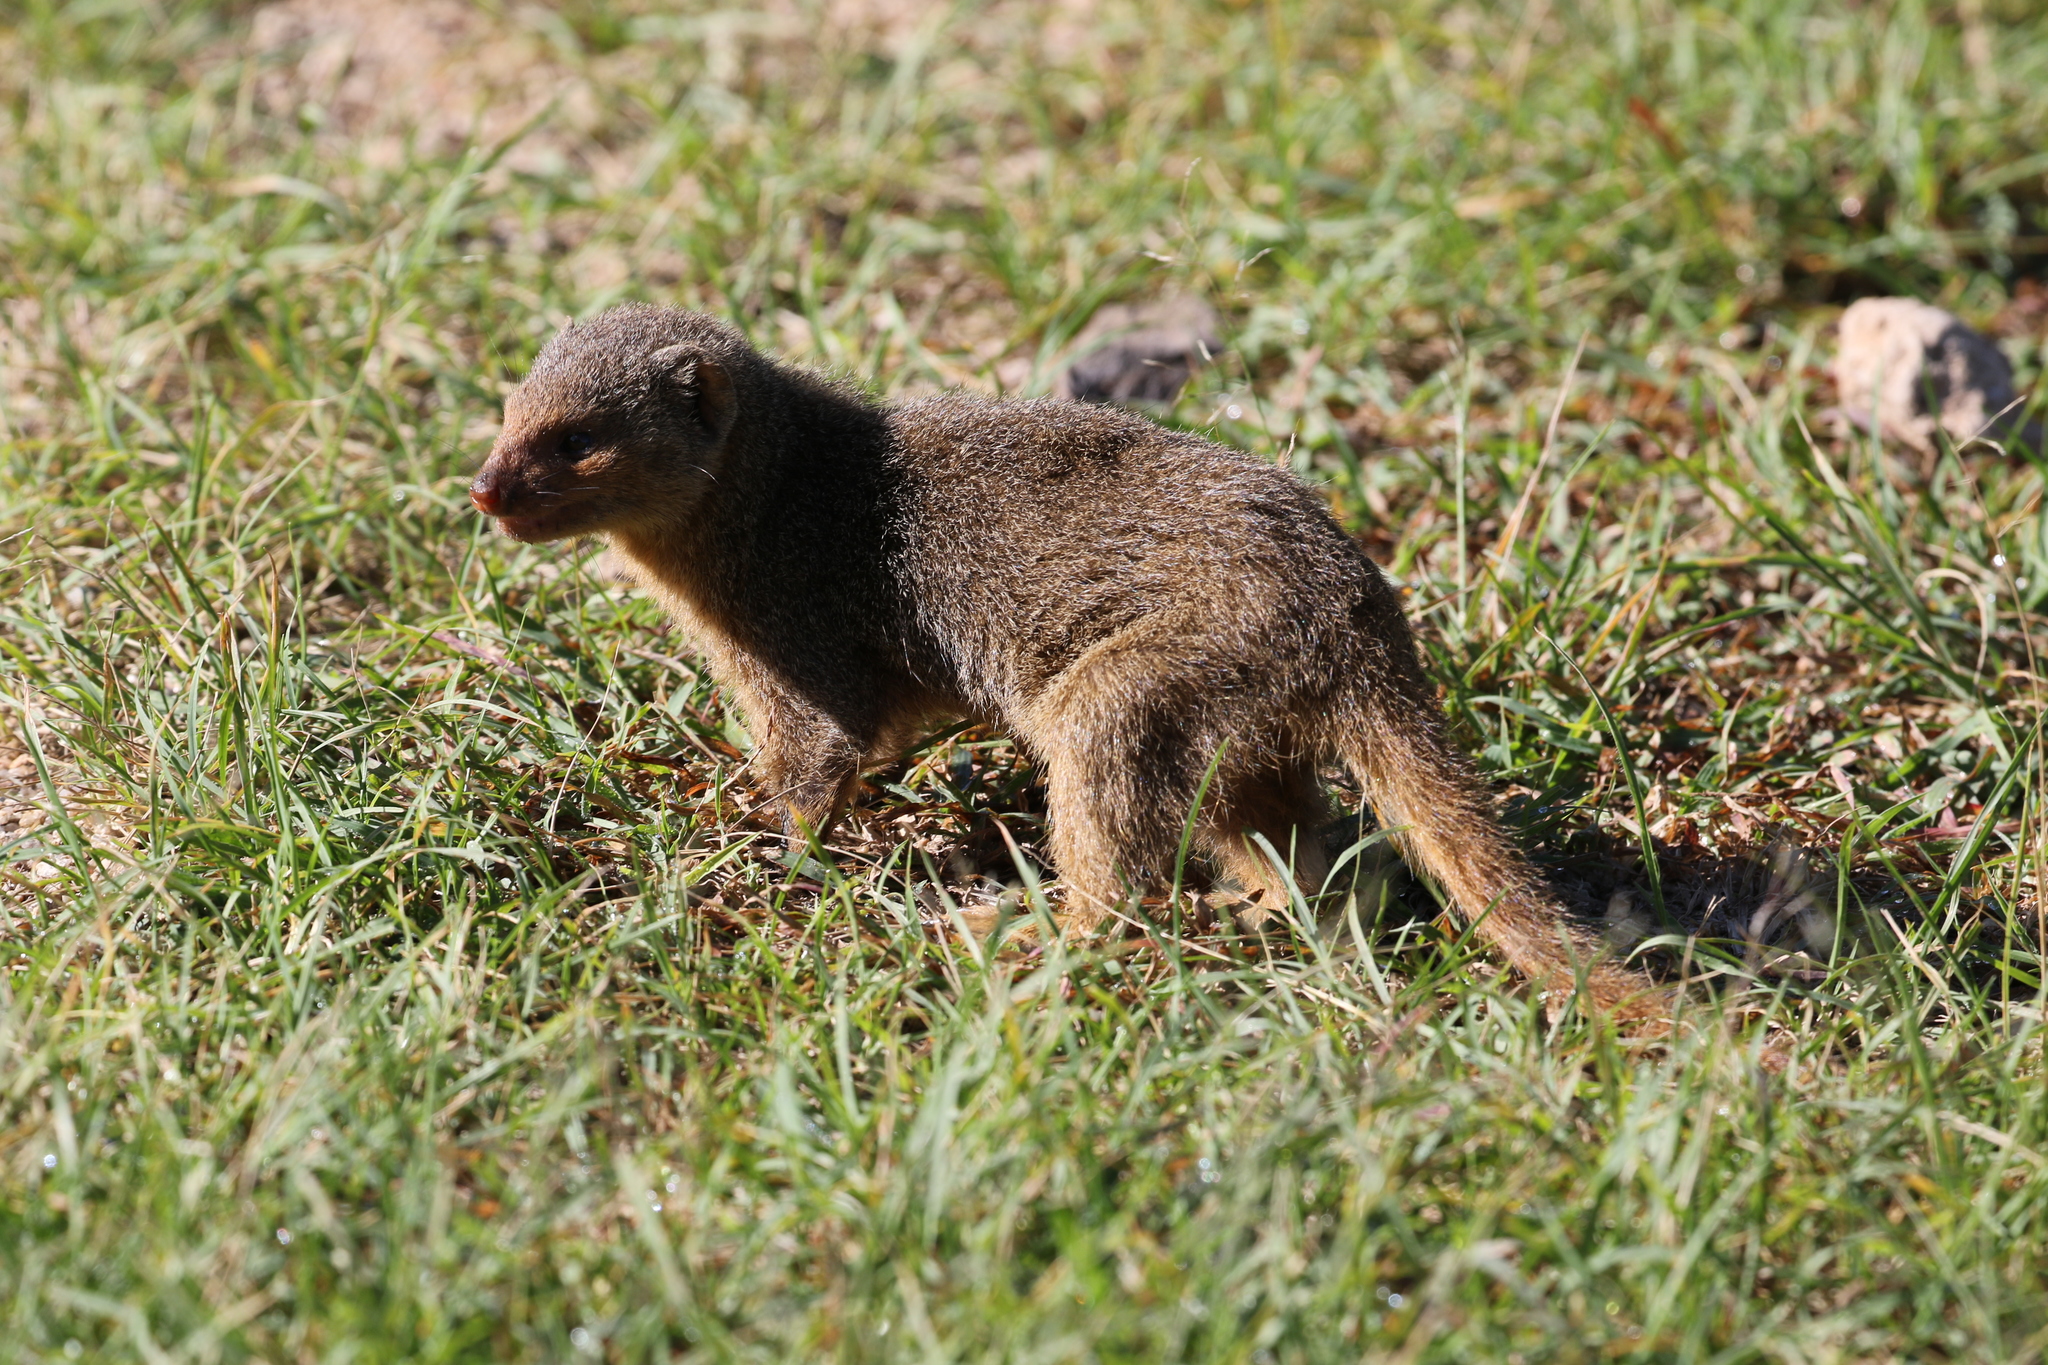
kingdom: Animalia
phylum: Chordata
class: Mammalia
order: Carnivora
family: Herpestidae
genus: Helogale
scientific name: Helogale parvula
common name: Common dwarf mongoose
